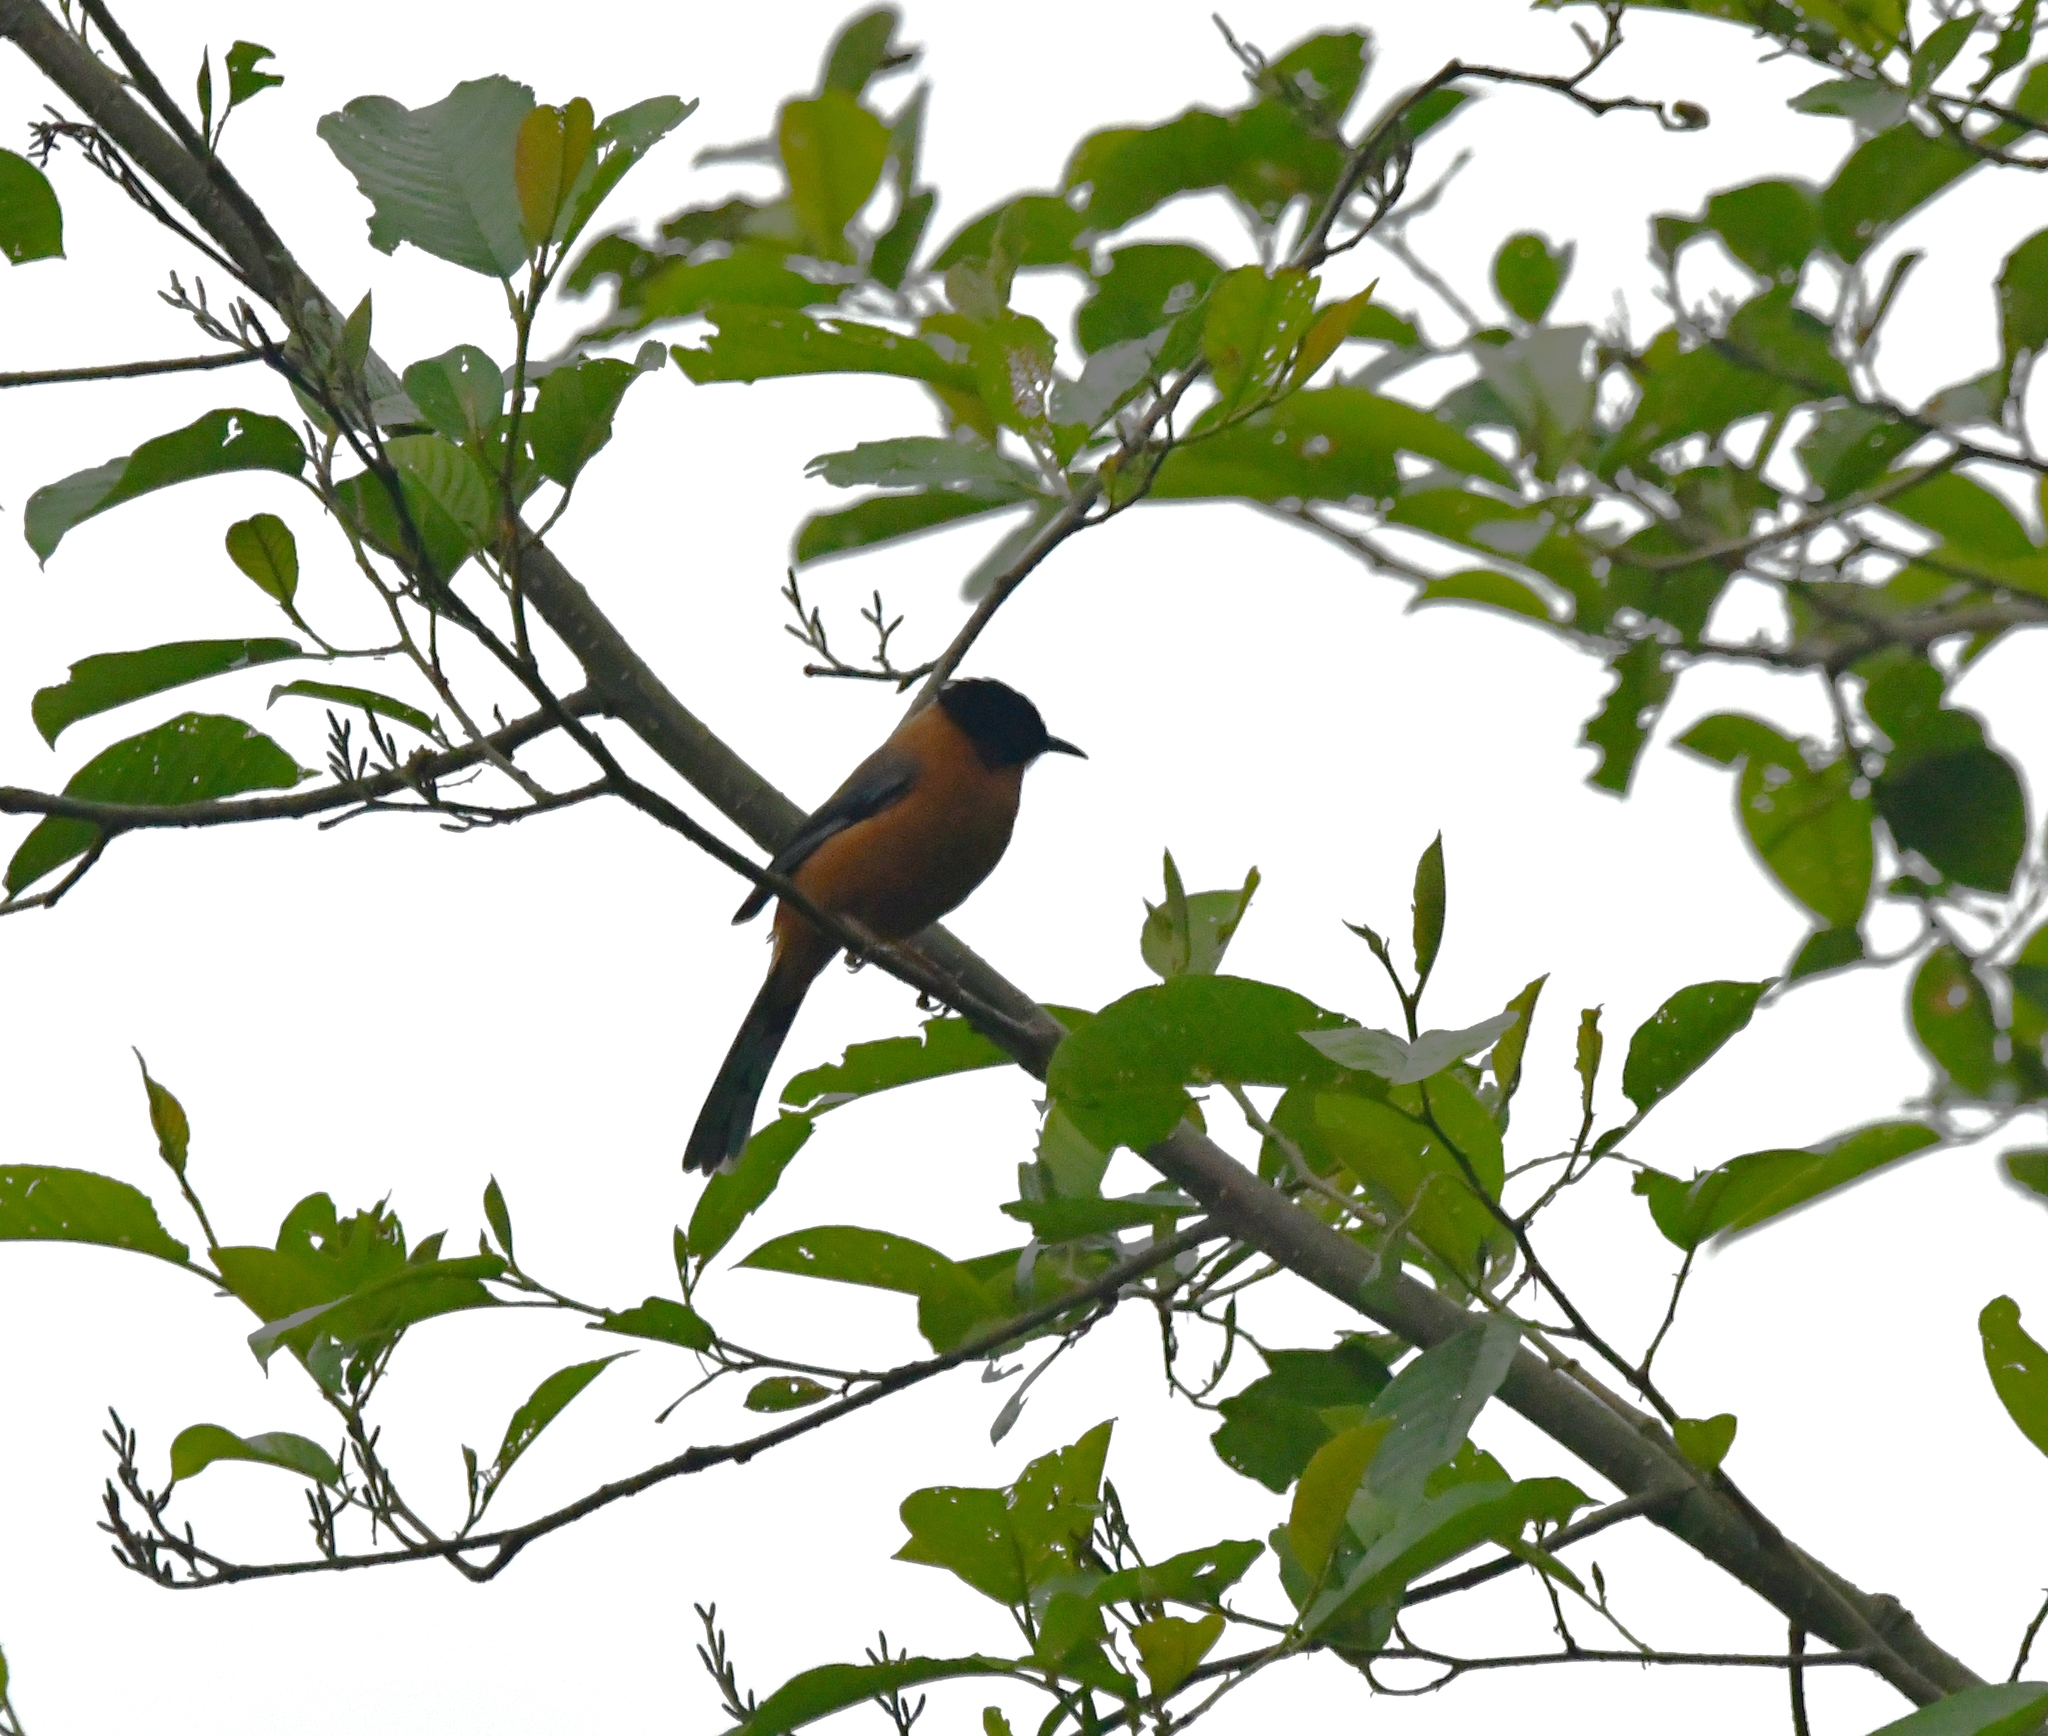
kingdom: Animalia
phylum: Chordata
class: Aves
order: Passeriformes
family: Leiothrichidae
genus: Heterophasia
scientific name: Heterophasia capistrata
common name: Rufous sibia
